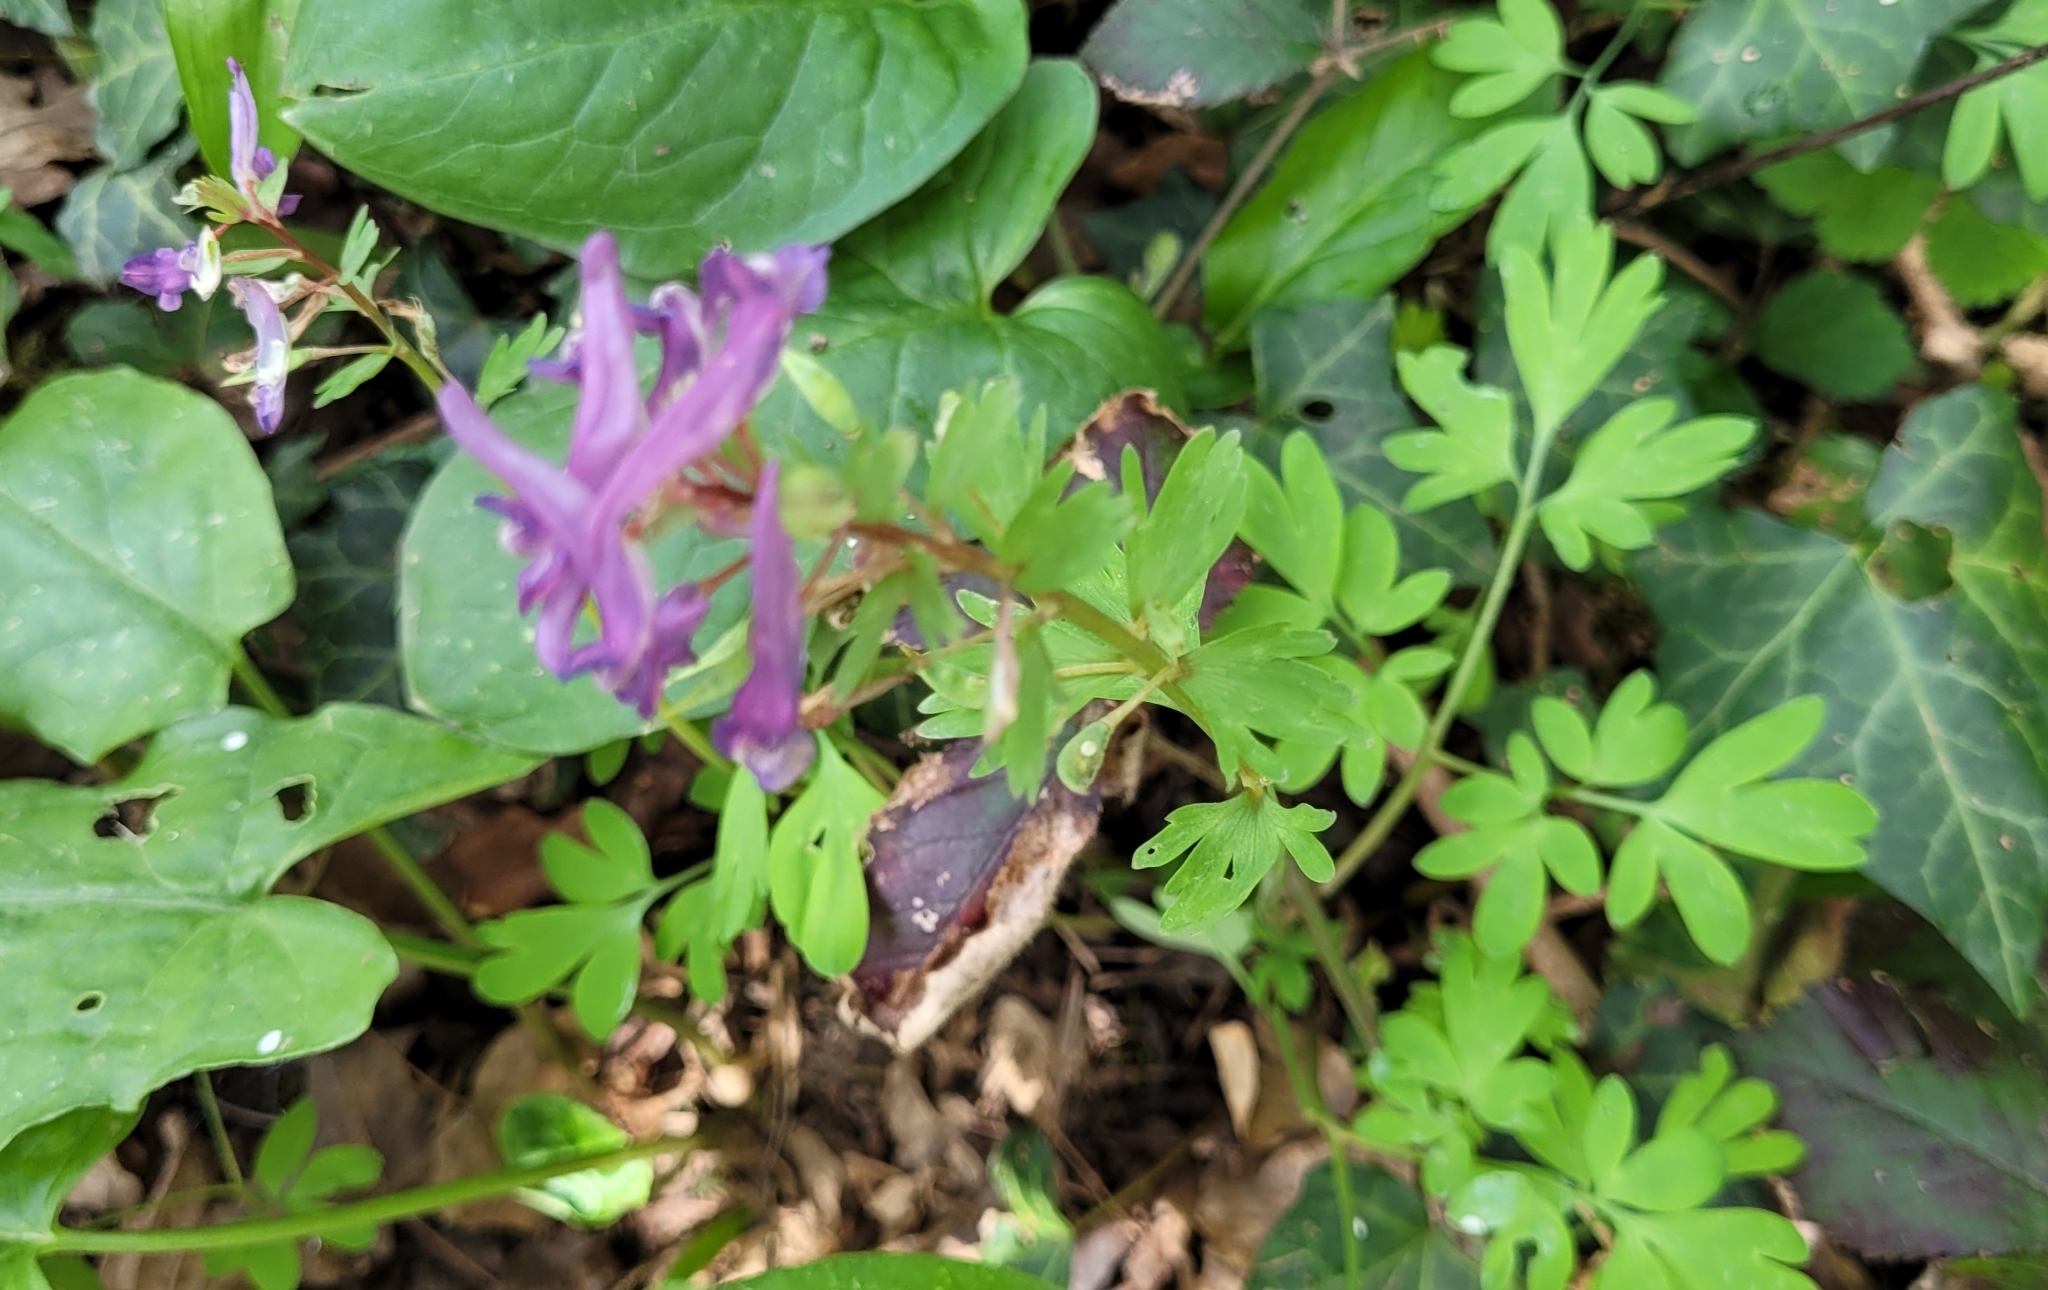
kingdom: Plantae
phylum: Tracheophyta
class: Magnoliopsida
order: Ranunculales
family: Papaveraceae
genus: Corydalis
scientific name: Corydalis solida
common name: Bird-in-a-bush
